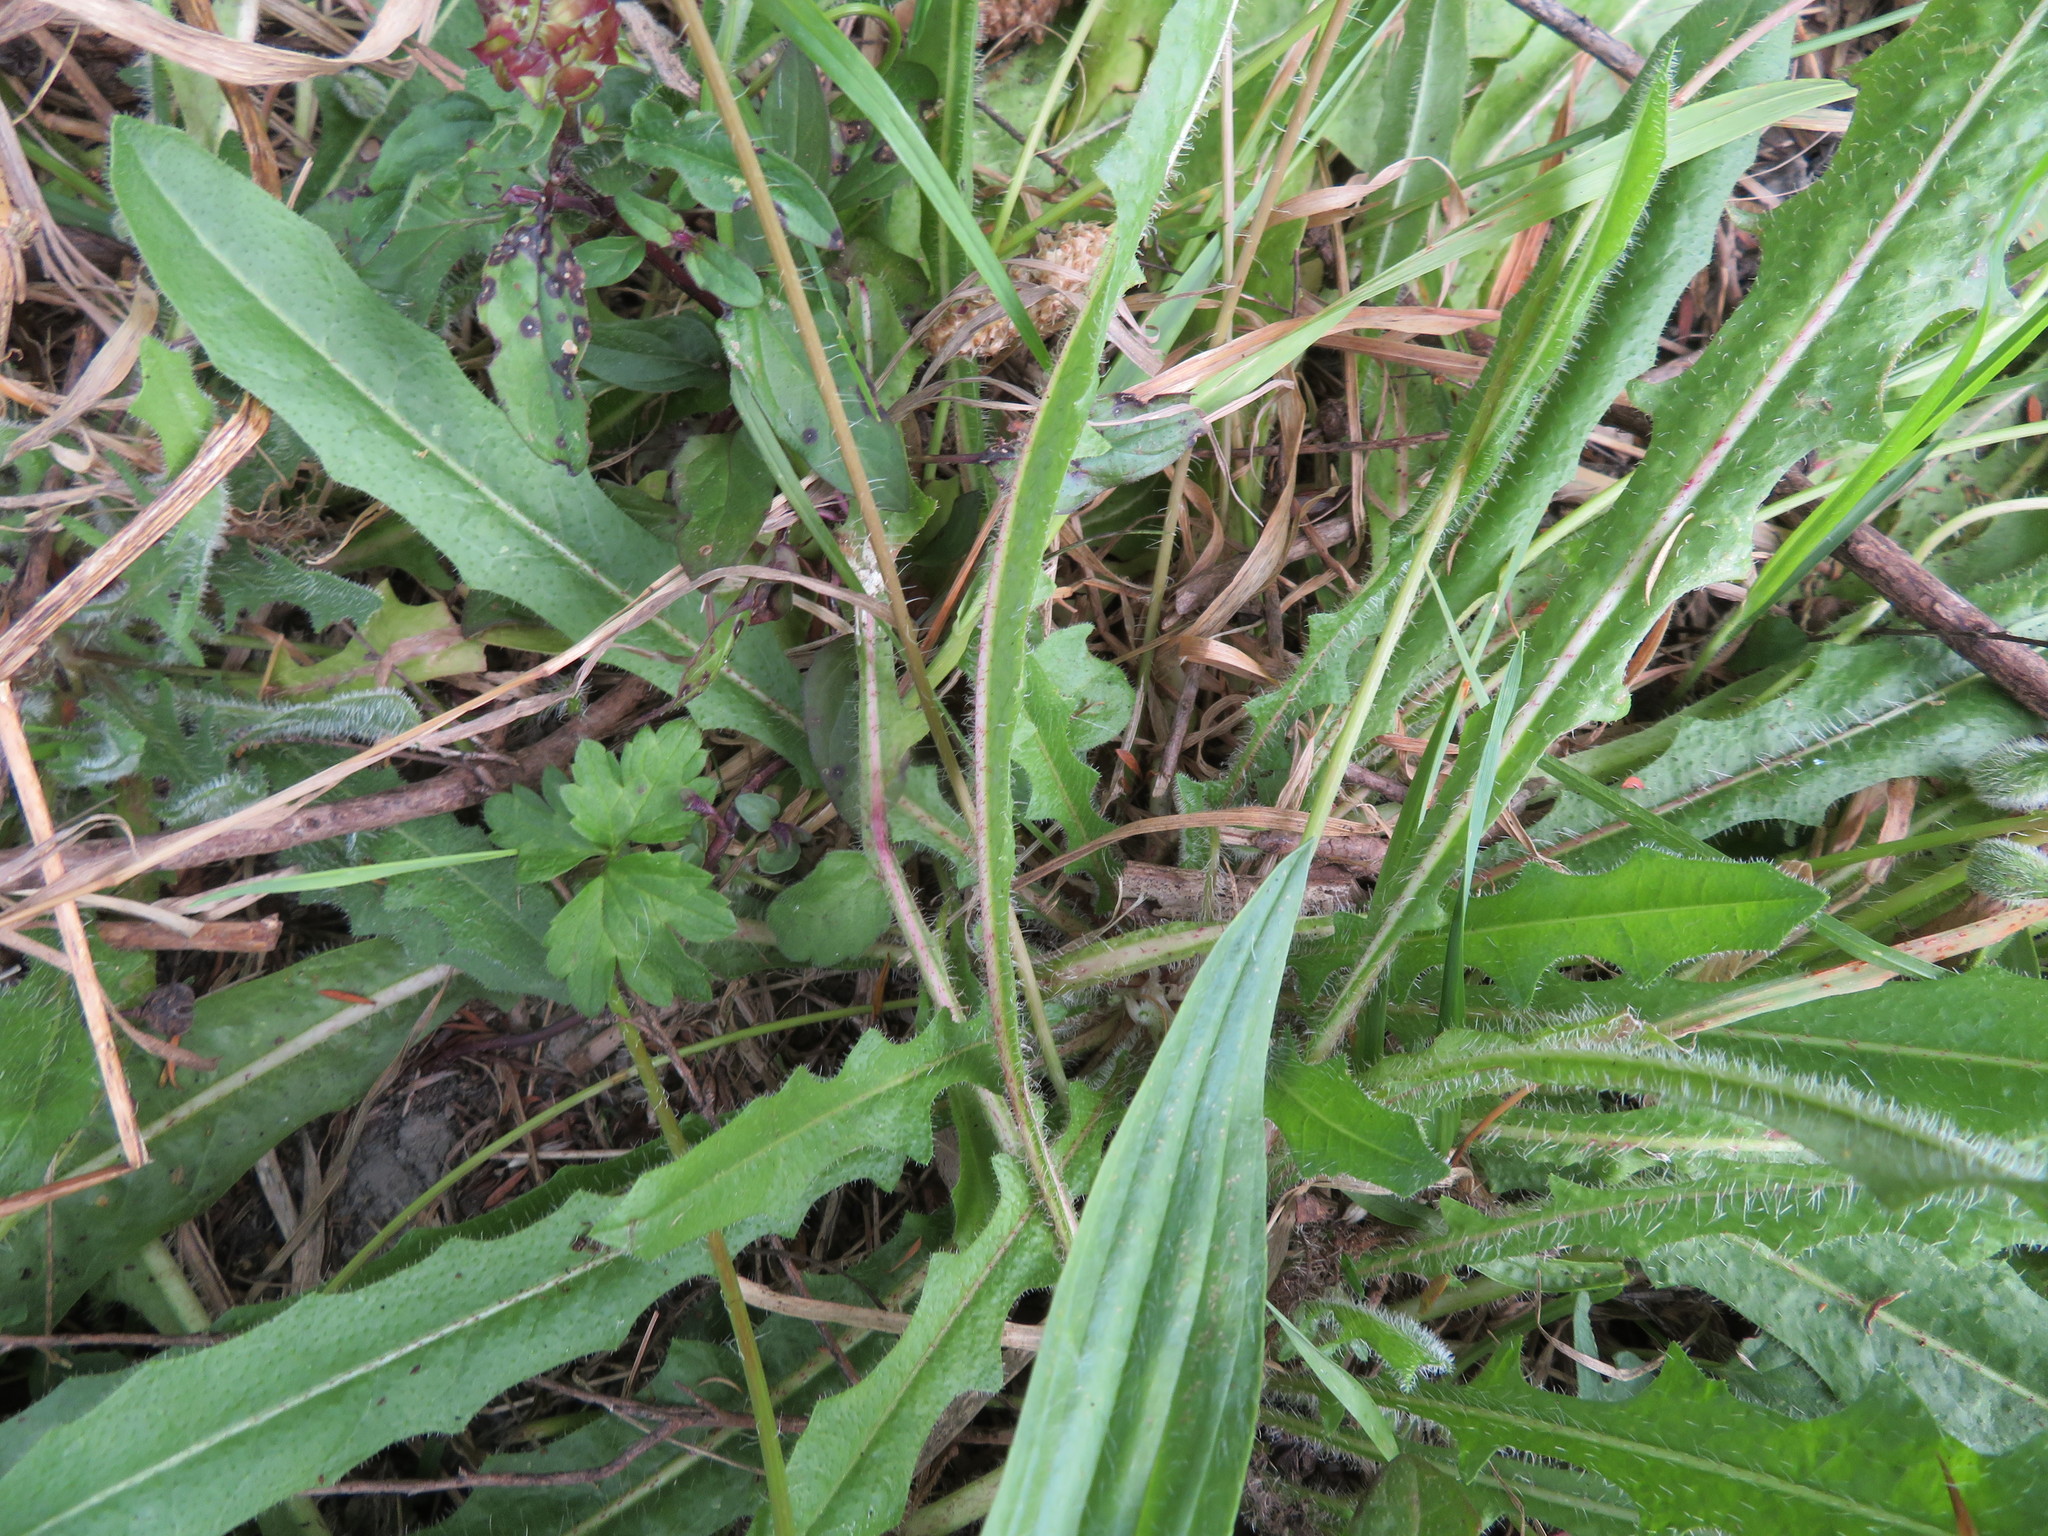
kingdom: Plantae
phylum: Tracheophyta
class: Magnoliopsida
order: Asterales
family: Asteraceae
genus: Hypochaeris
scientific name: Hypochaeris radicata
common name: Flatweed
